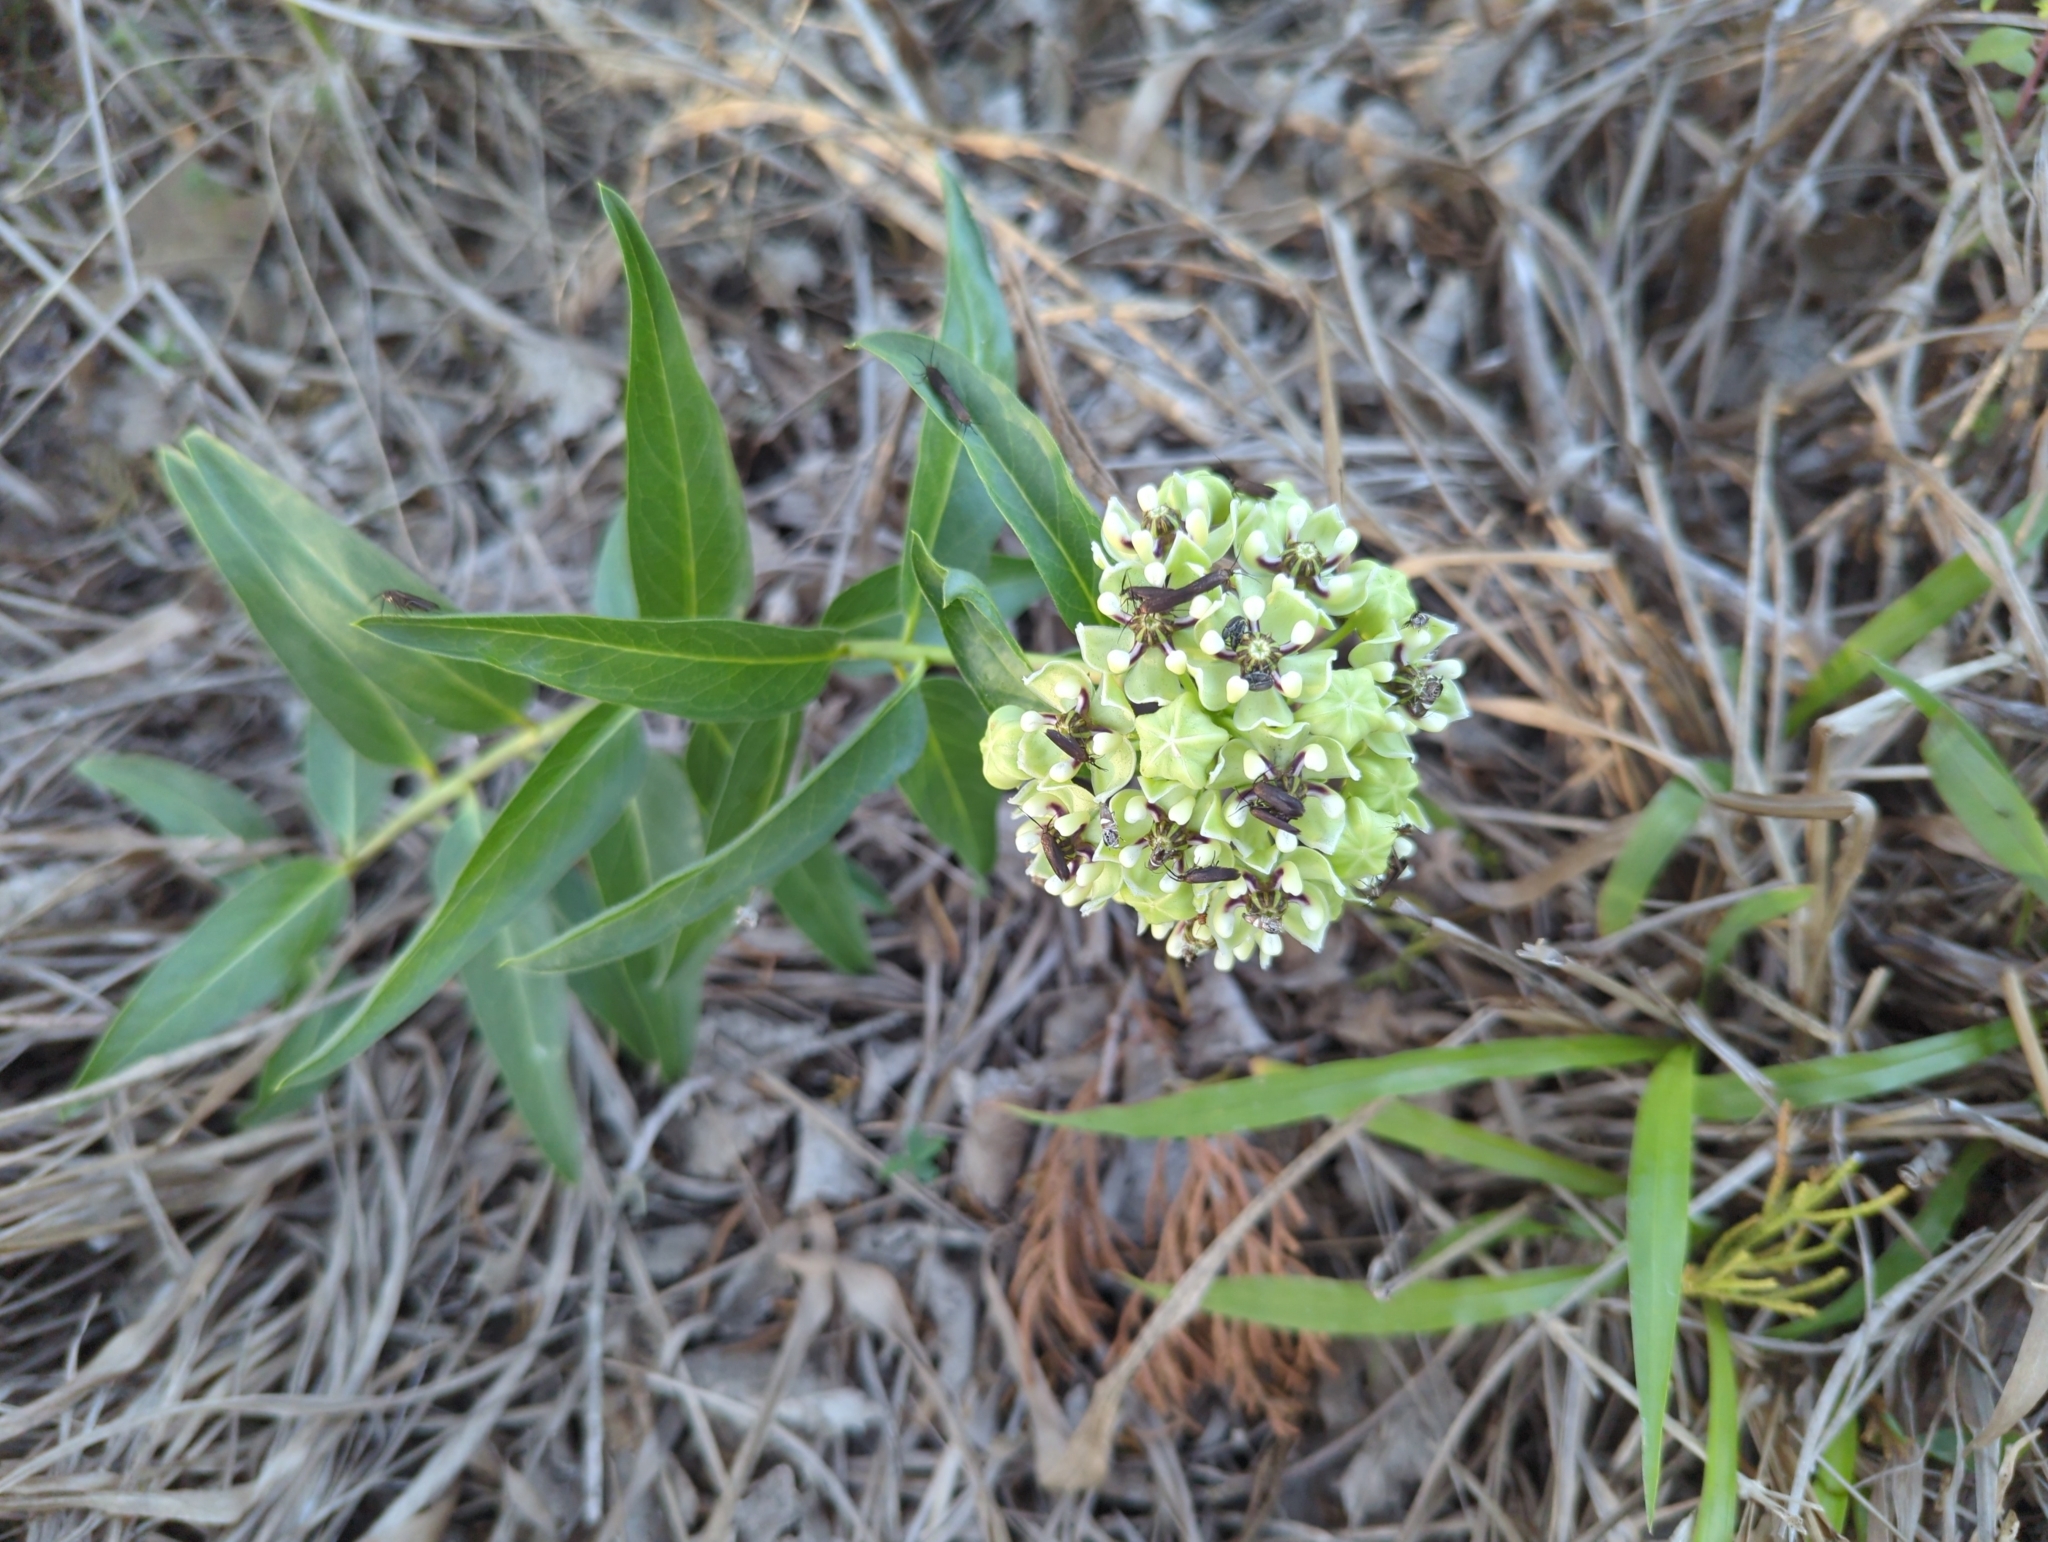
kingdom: Plantae
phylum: Tracheophyta
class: Magnoliopsida
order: Gentianales
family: Apocynaceae
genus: Asclepias
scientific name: Asclepias asperula
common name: Antelope horns
